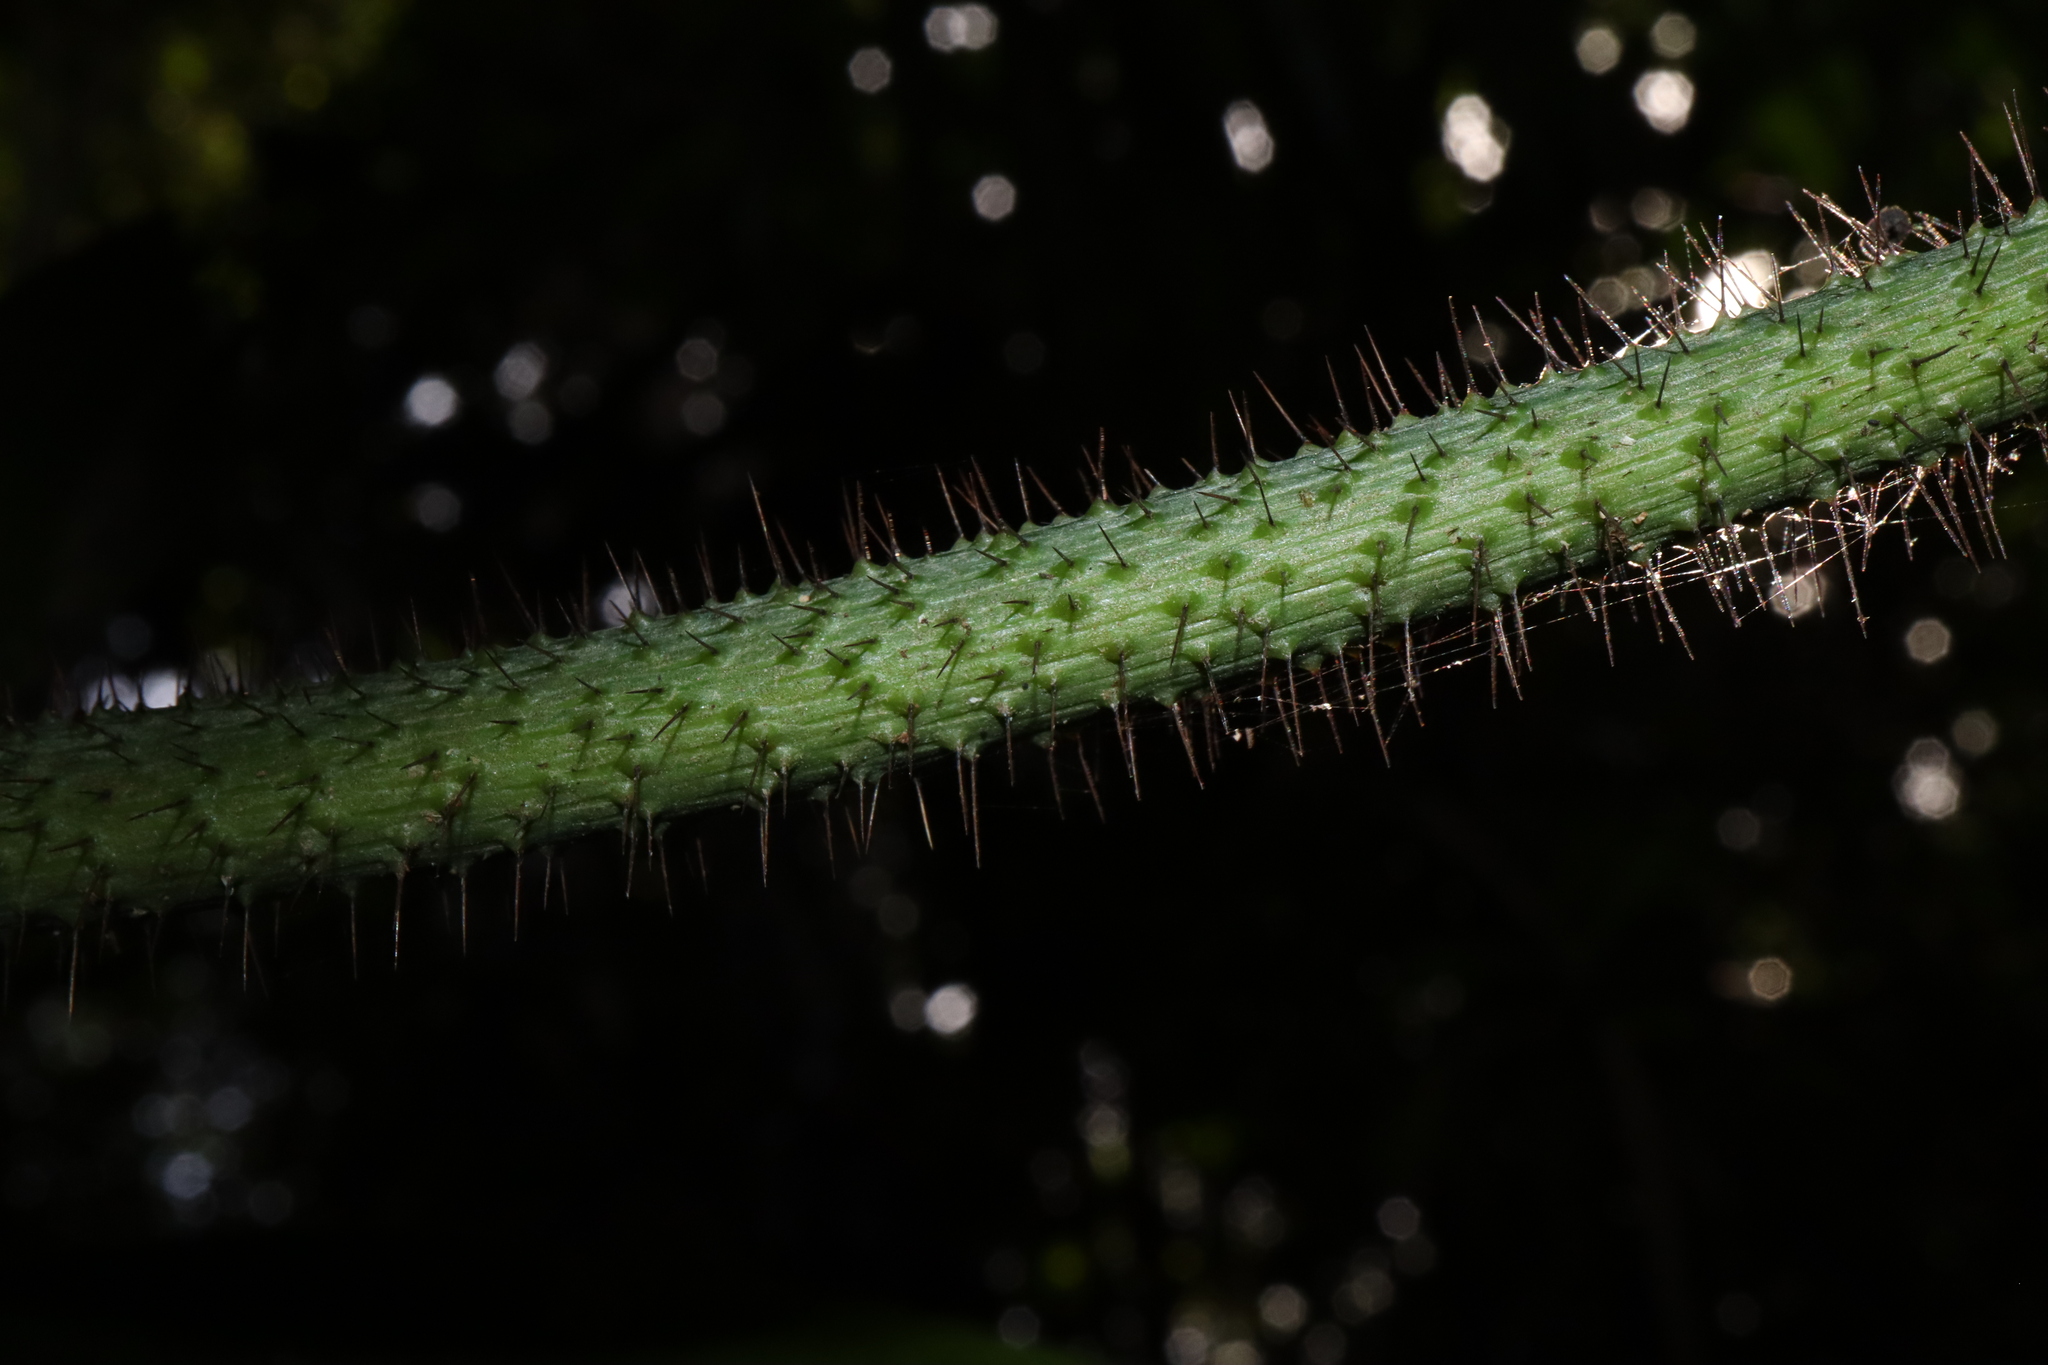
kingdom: Plantae
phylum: Tracheophyta
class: Liliopsida
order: Arecales
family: Arecaceae
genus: Calamus
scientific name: Calamus caryotoides
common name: Fishtail lawyer cane
